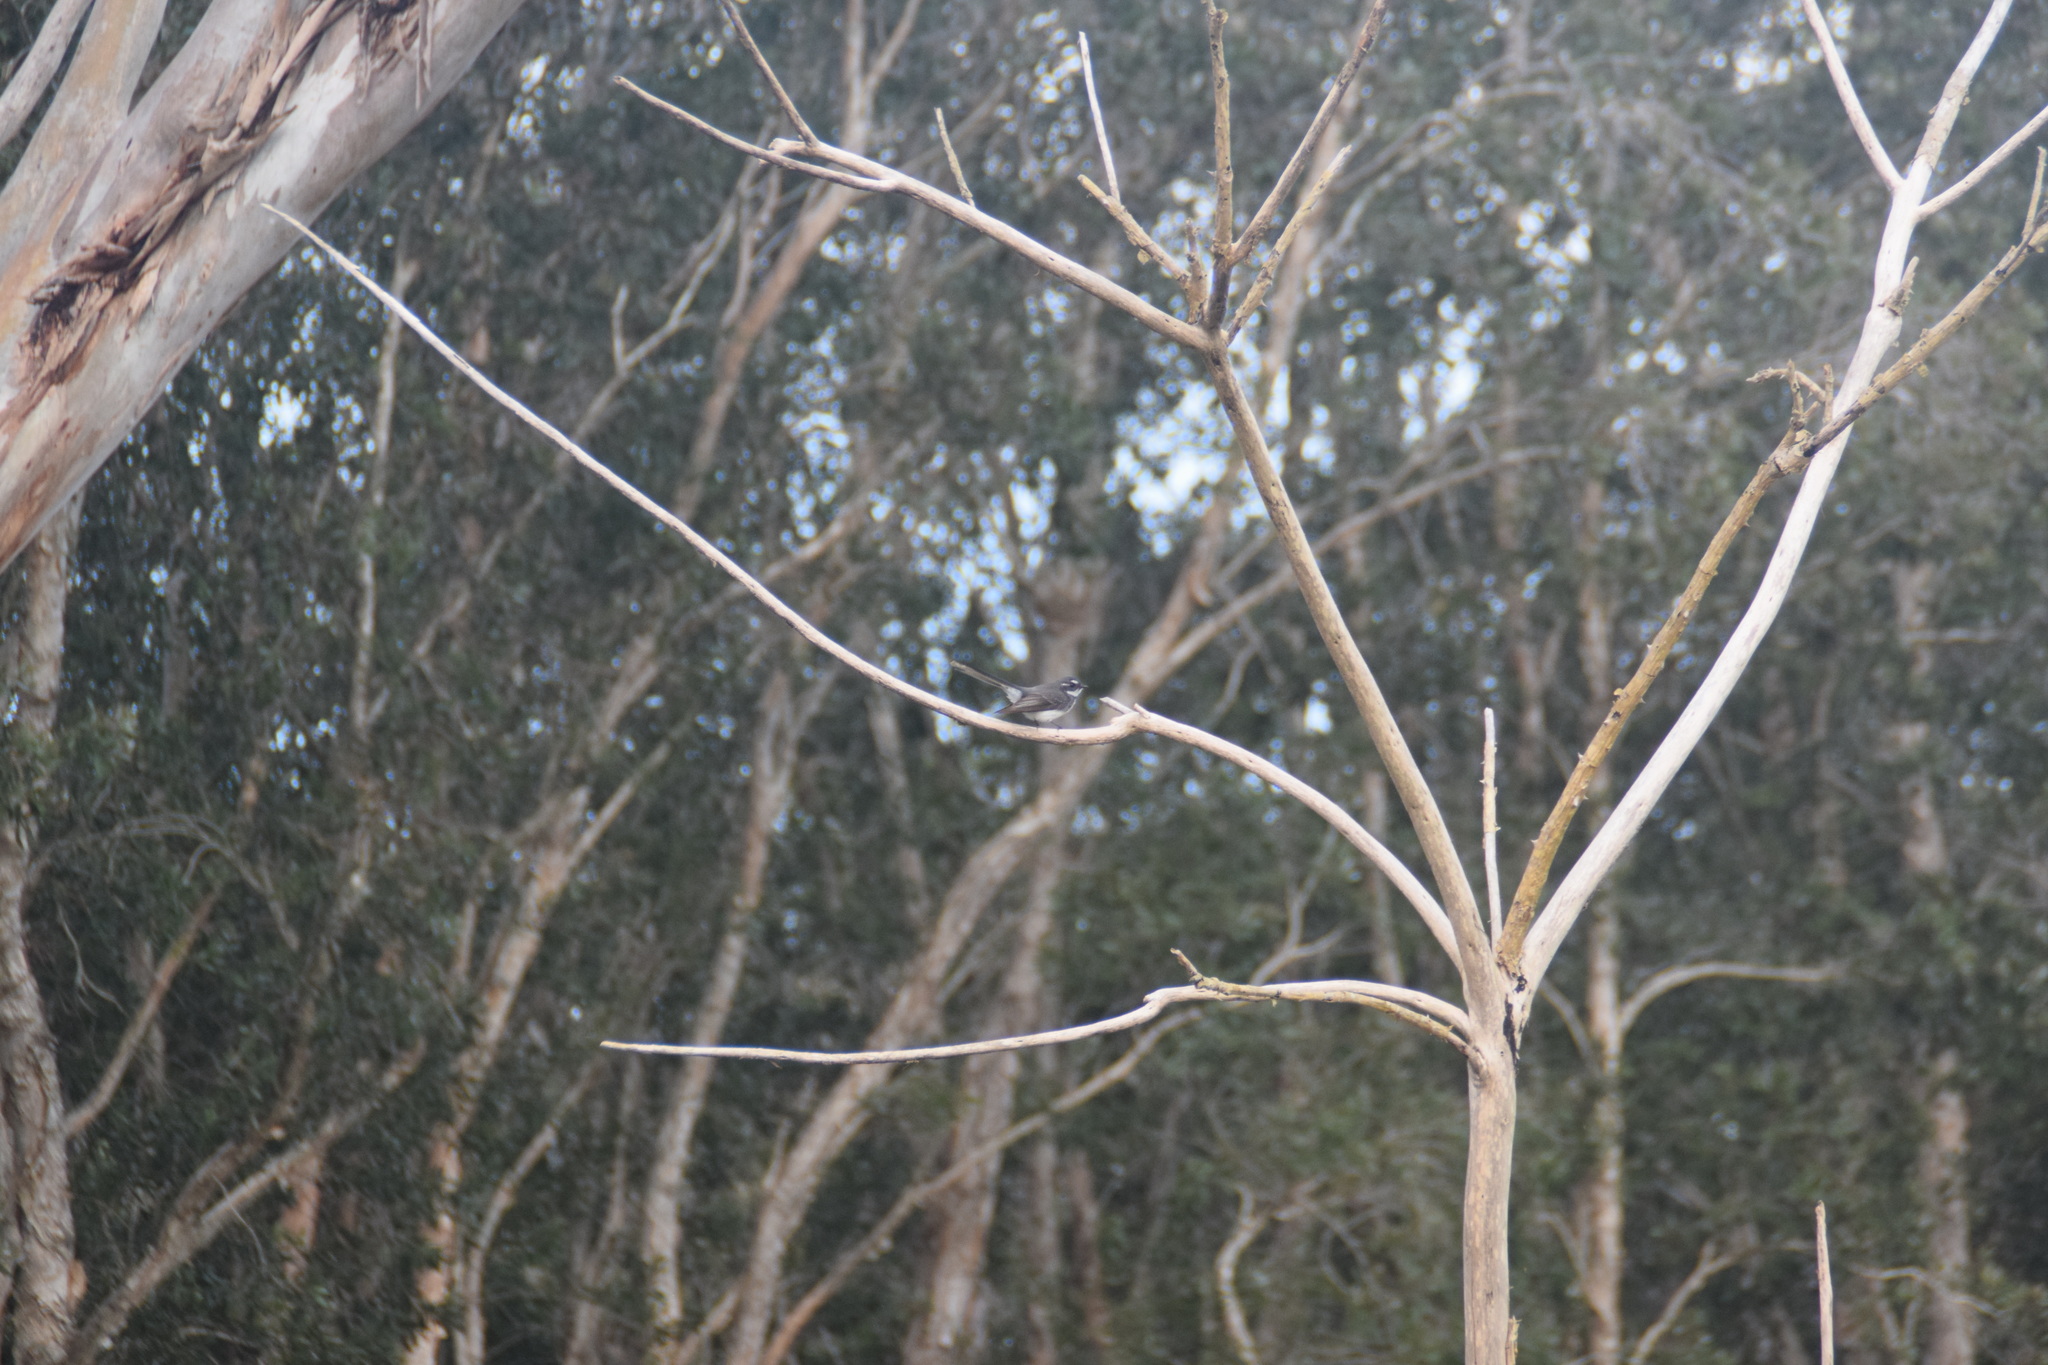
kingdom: Animalia
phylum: Chordata
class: Aves
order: Passeriformes
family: Rhipiduridae
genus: Rhipidura
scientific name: Rhipidura albiscapa
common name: Grey fantail
